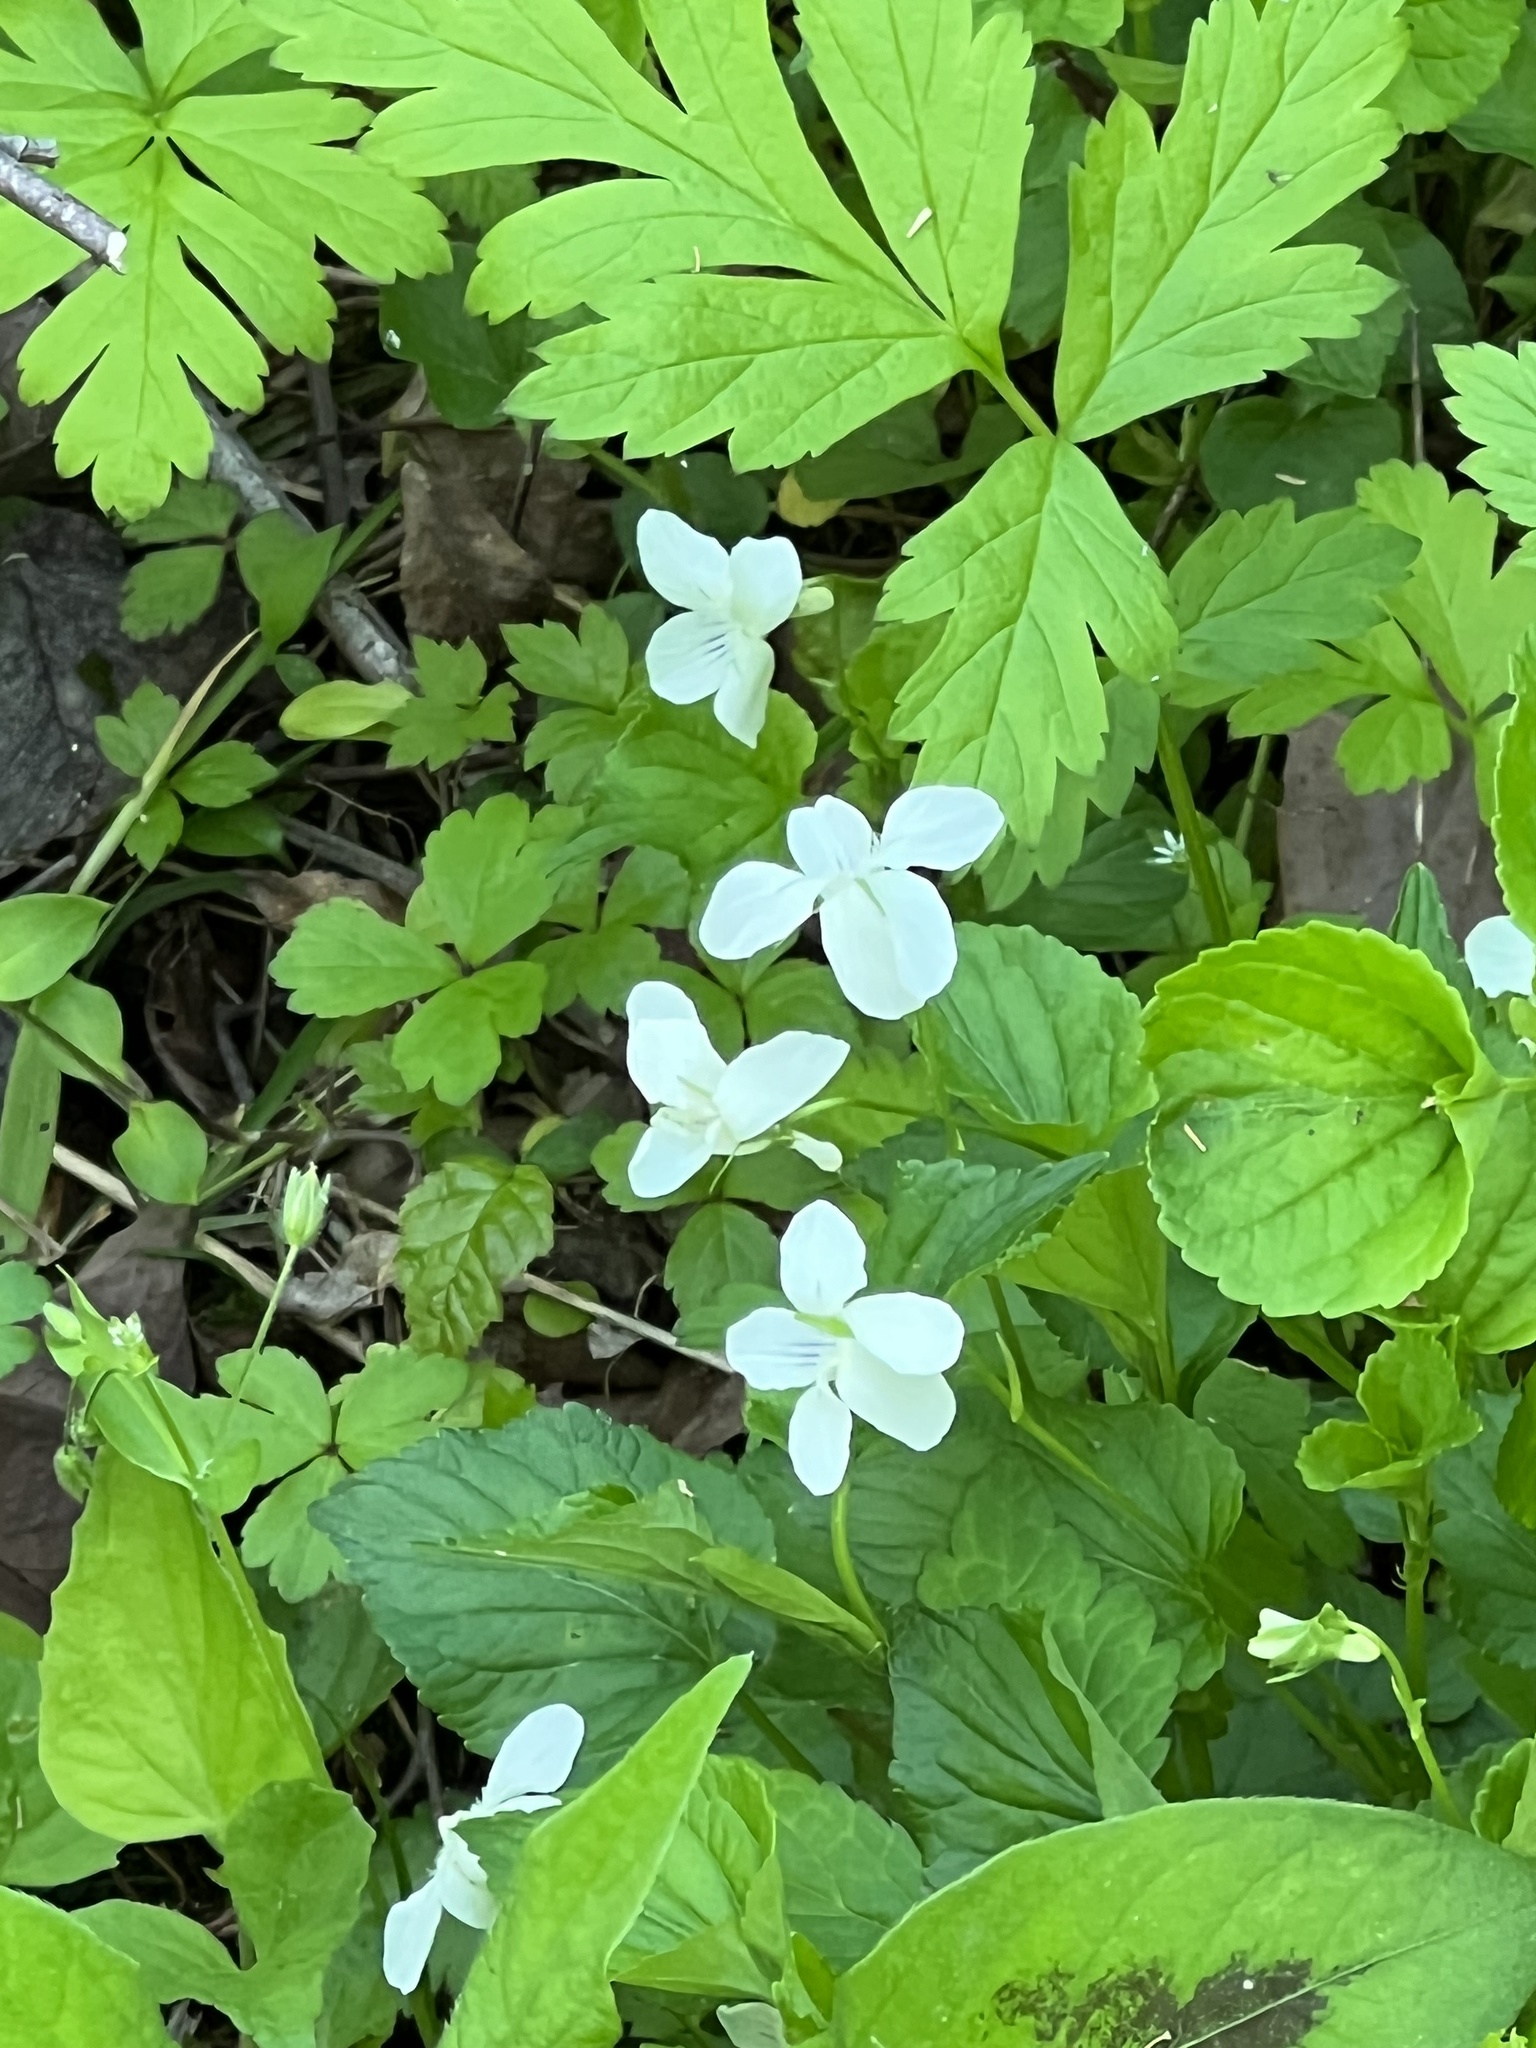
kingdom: Plantae
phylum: Tracheophyta
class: Magnoliopsida
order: Malpighiales
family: Violaceae
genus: Viola
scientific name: Viola striata
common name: Cream violet
